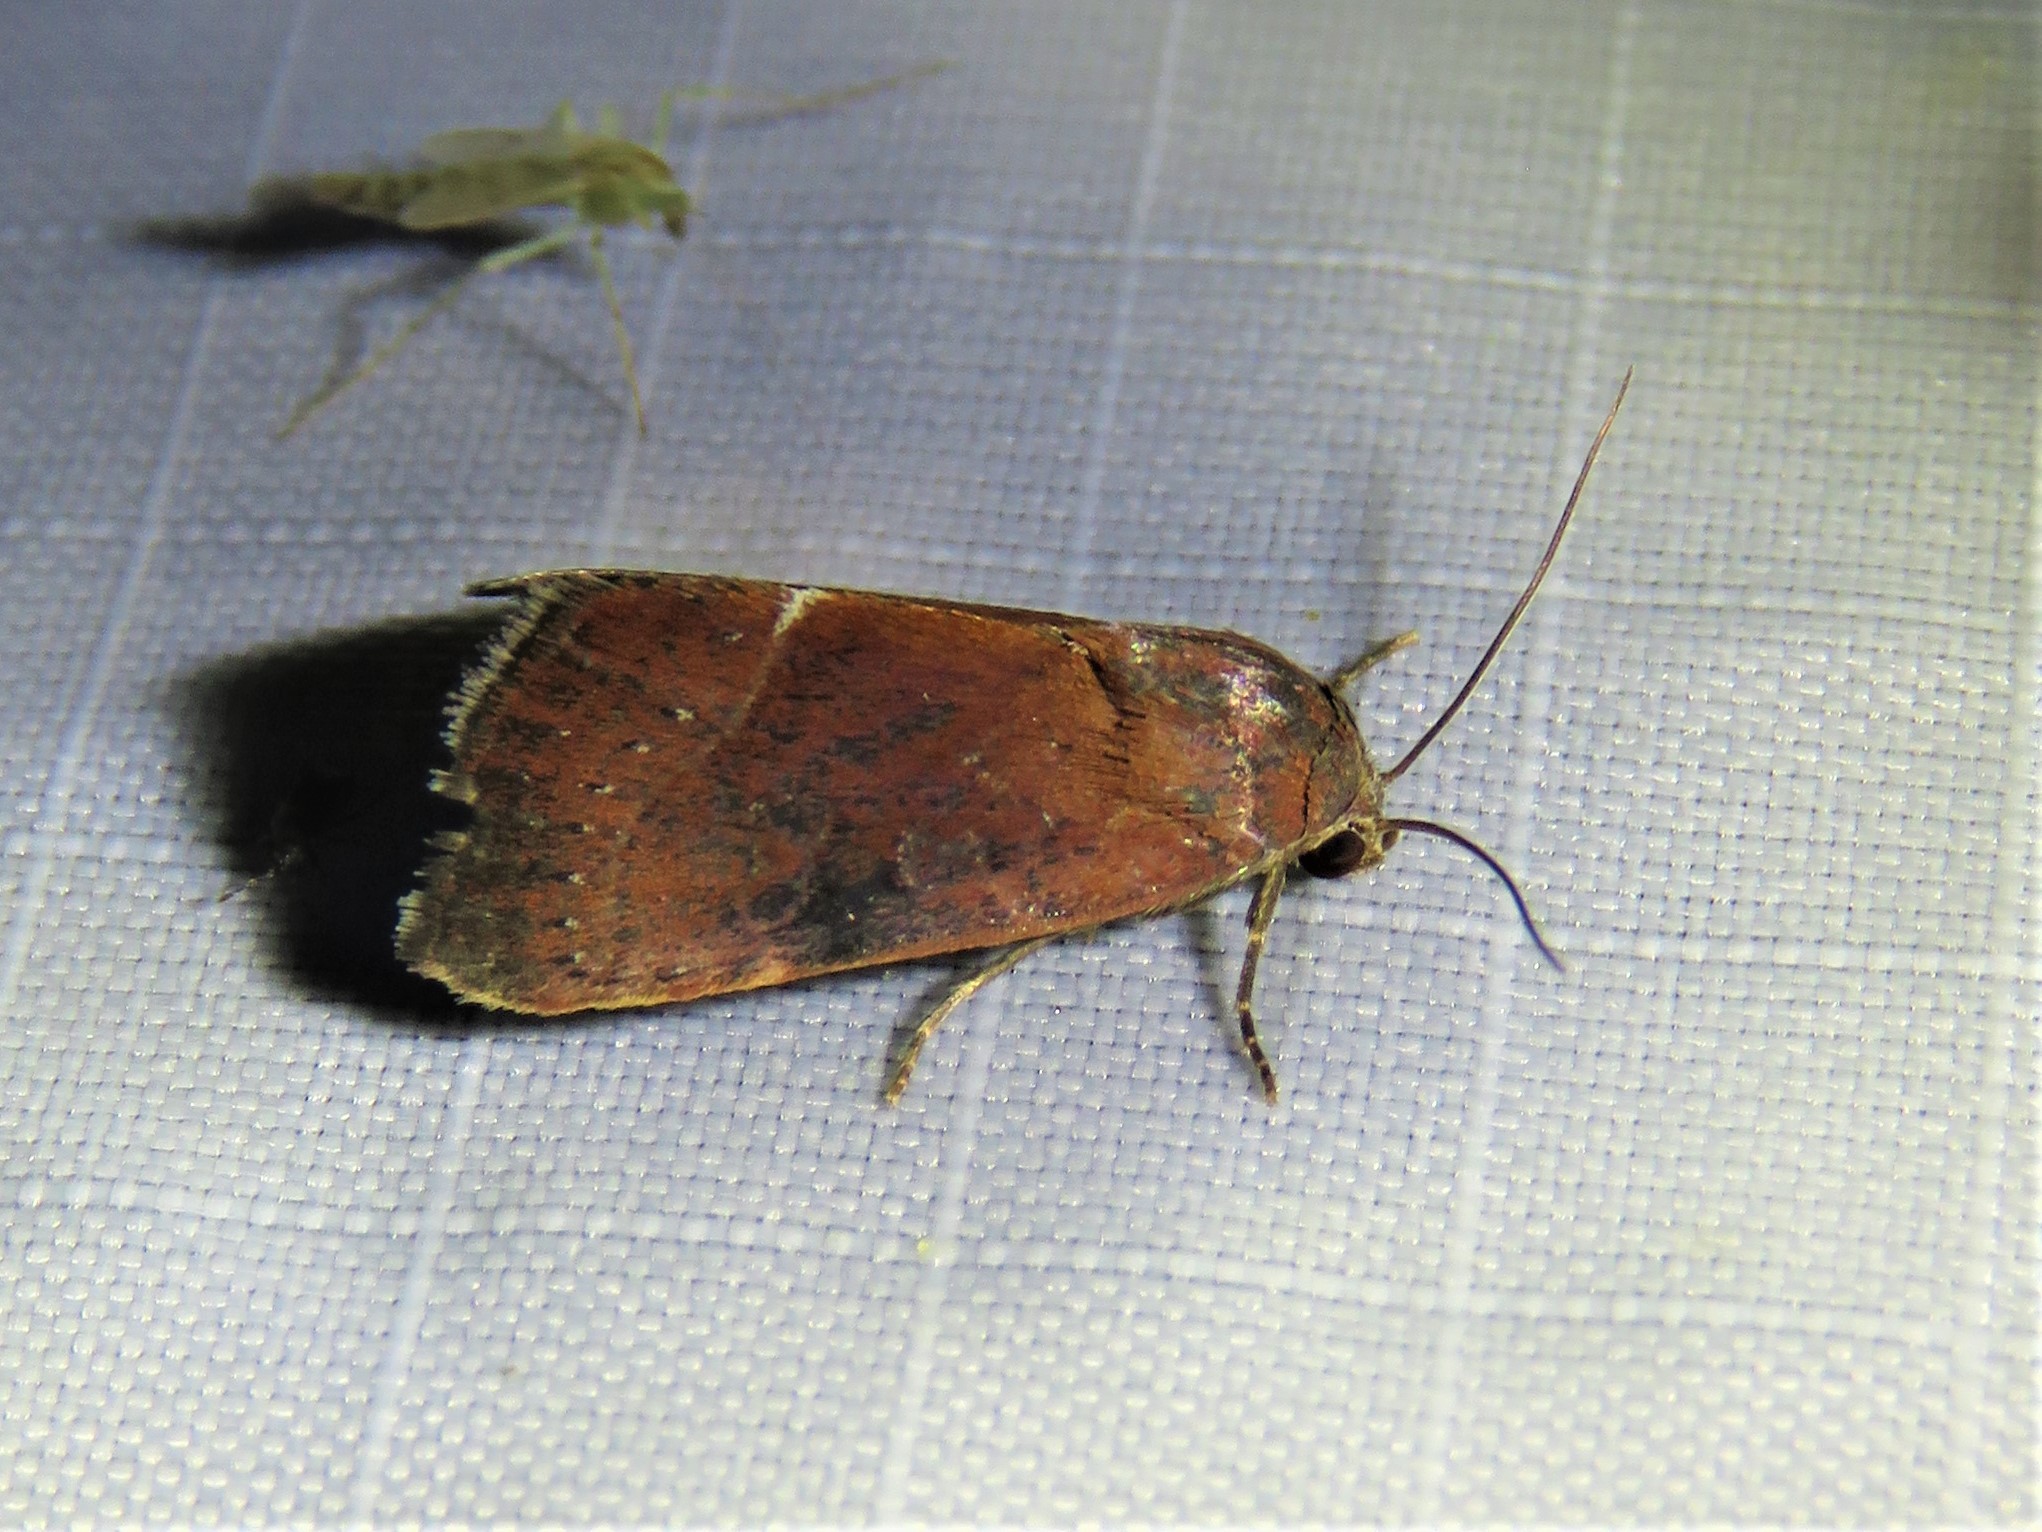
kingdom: Animalia
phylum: Arthropoda
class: Insecta
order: Lepidoptera
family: Noctuidae
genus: Galgula
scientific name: Galgula partita
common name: Wedgeling
